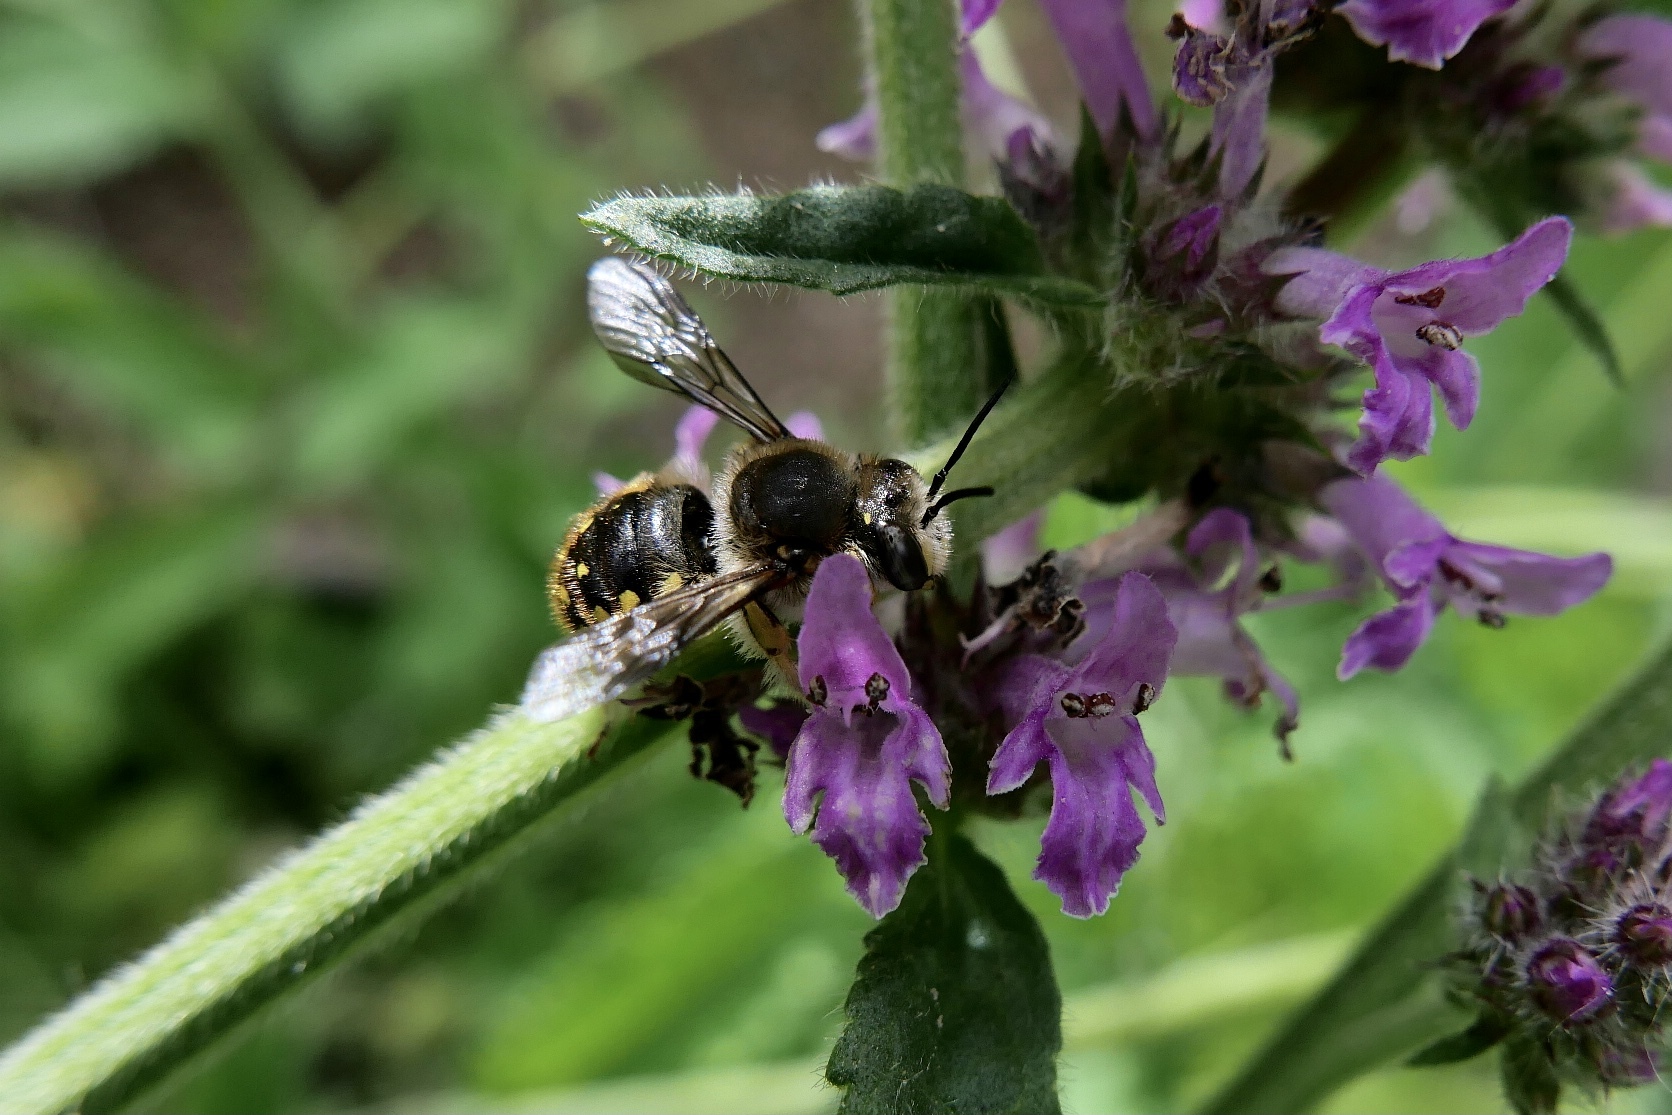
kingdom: Animalia
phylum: Arthropoda
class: Insecta
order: Hymenoptera
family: Megachilidae
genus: Anthidium
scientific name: Anthidium manicatum
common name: Wool carder bee
